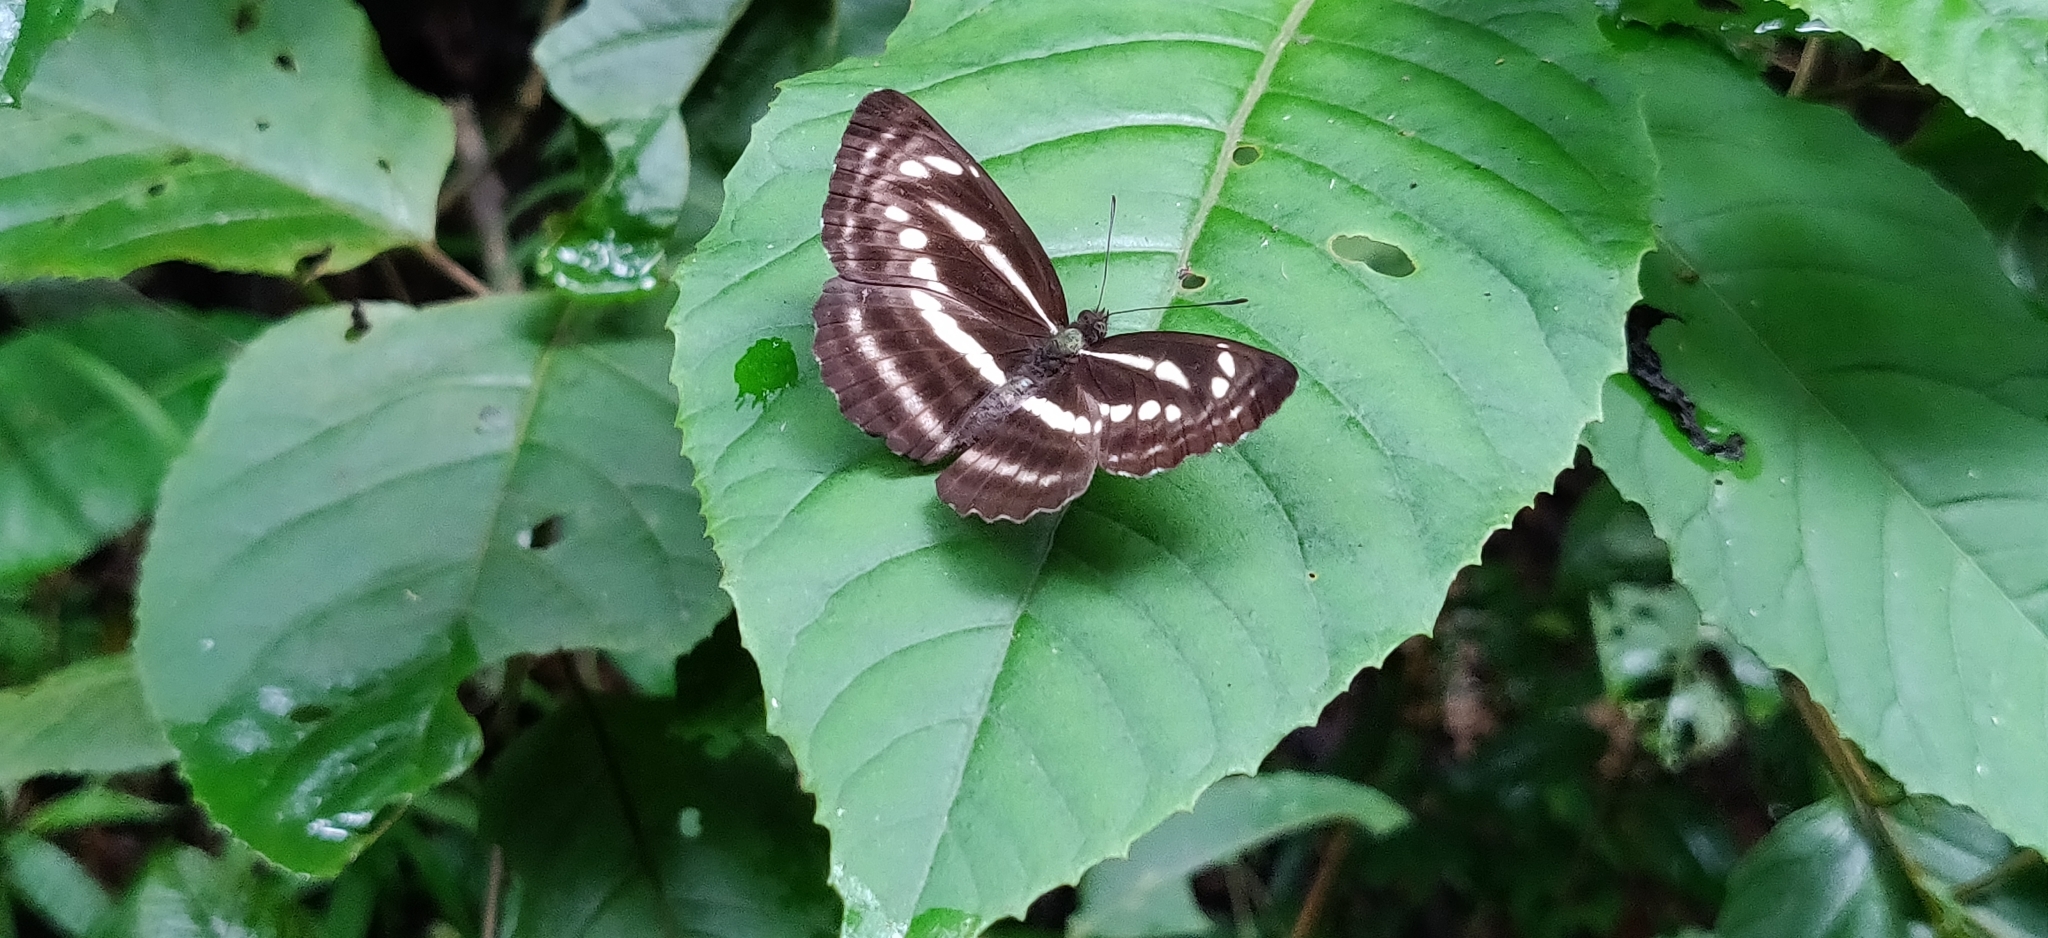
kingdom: Animalia
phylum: Arthropoda
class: Insecta
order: Lepidoptera
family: Nymphalidae
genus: Neptis
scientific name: Neptis nata
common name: Sullied brown sailer
